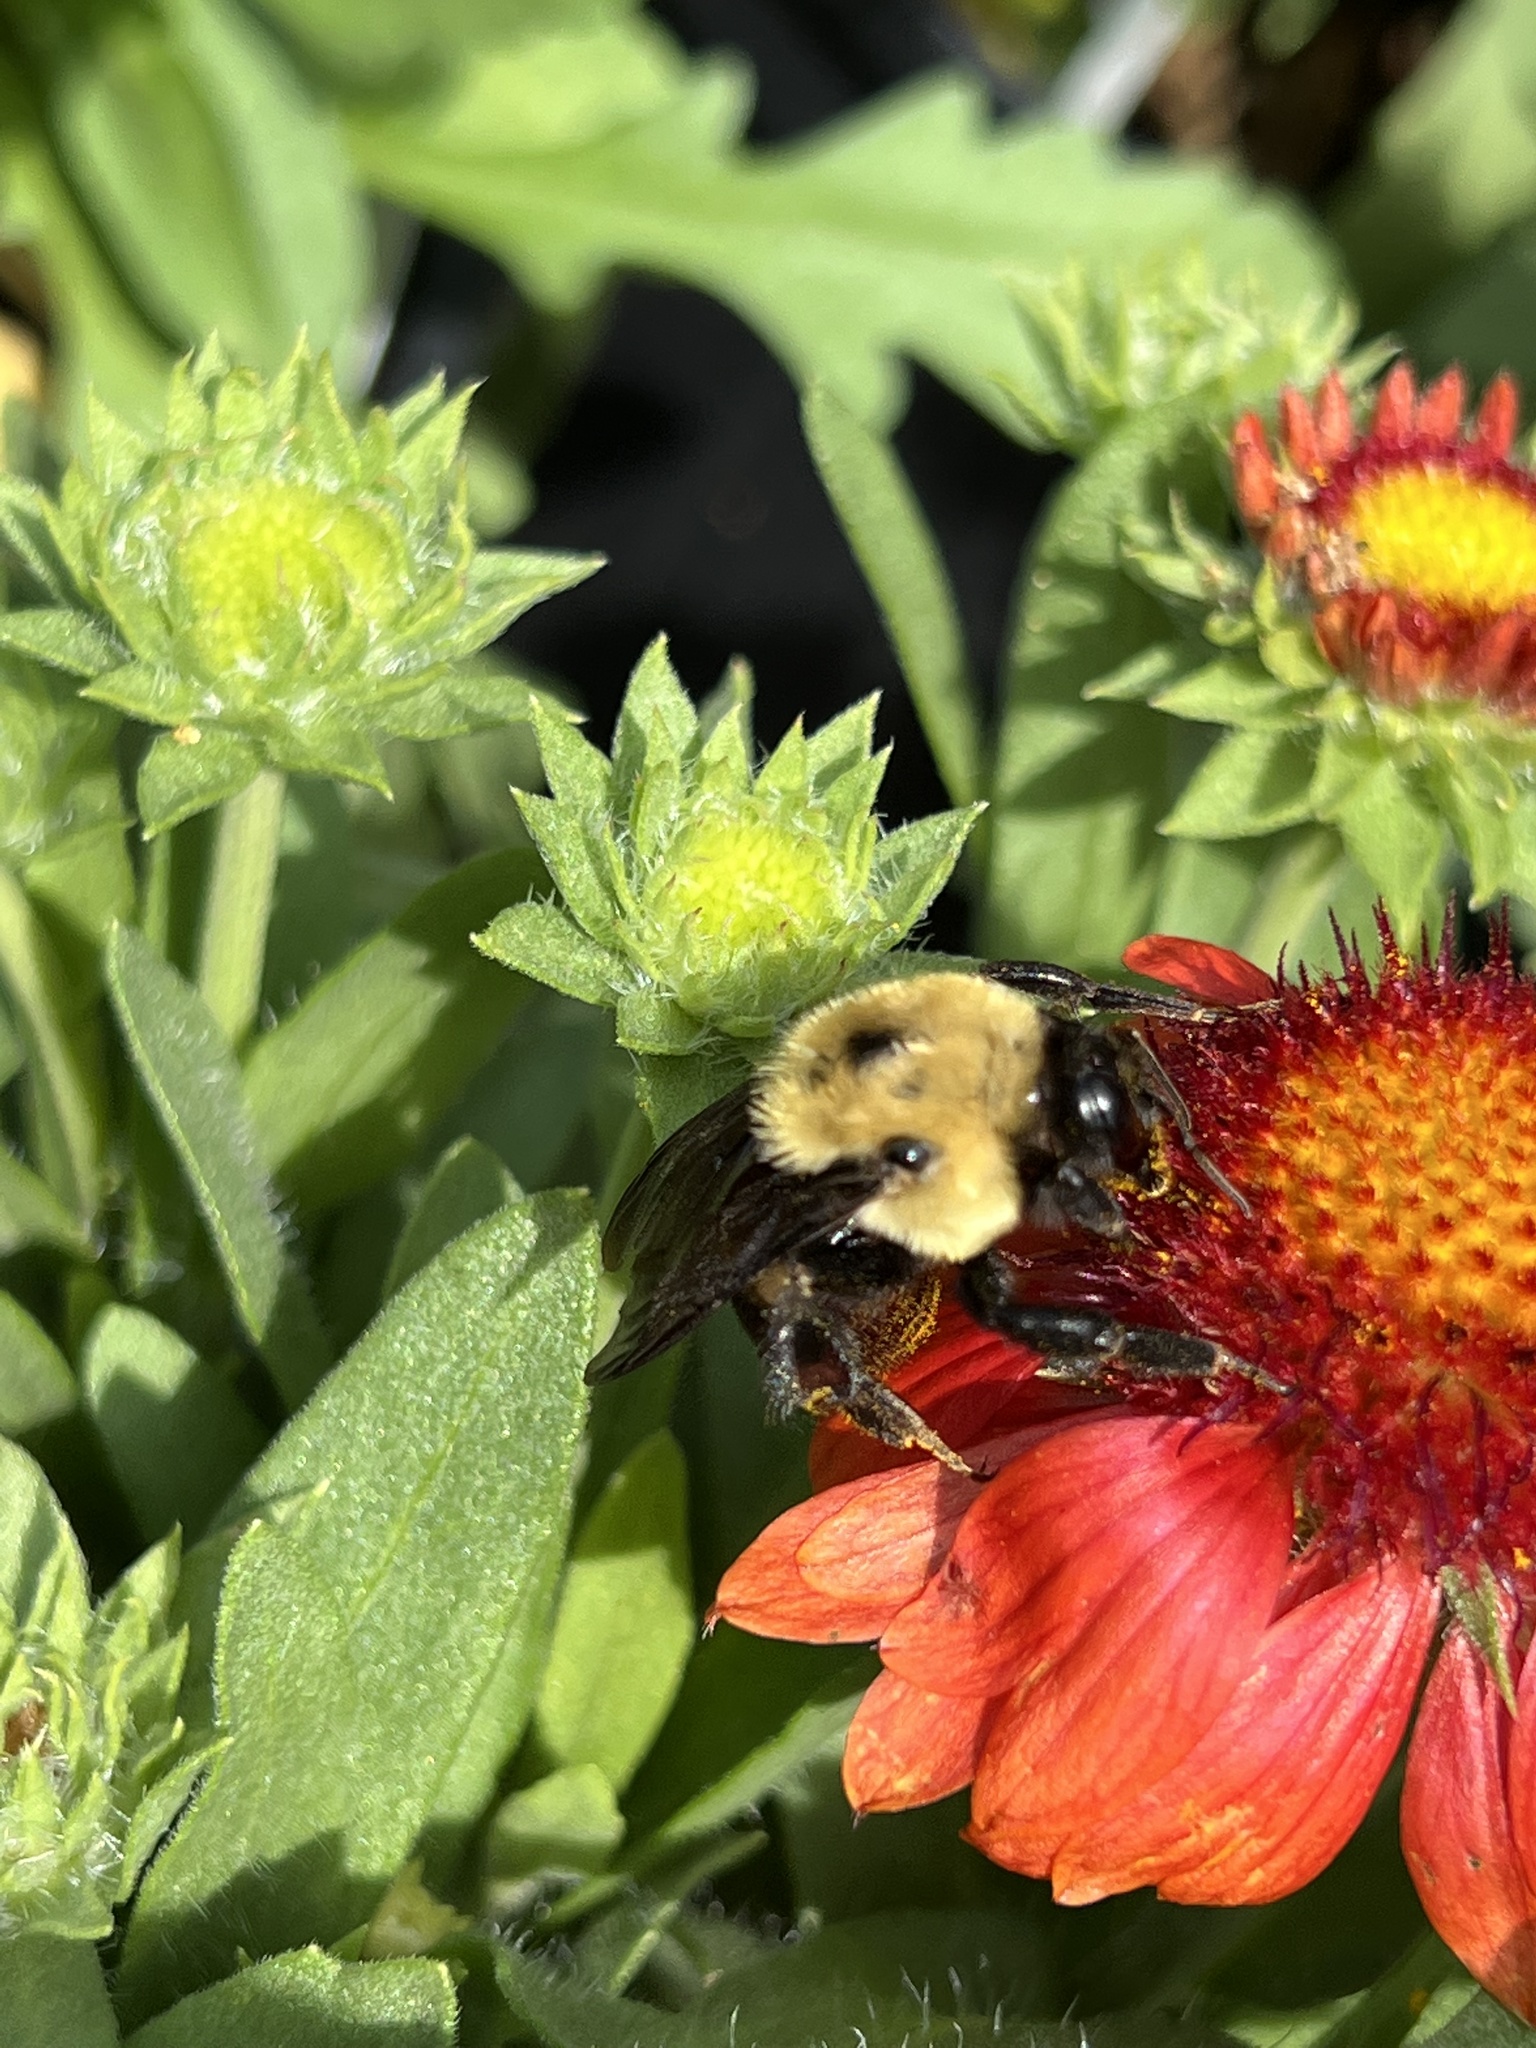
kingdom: Animalia
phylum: Arthropoda
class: Insecta
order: Hymenoptera
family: Apidae
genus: Bombus
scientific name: Bombus griseocollis
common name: Brown-belted bumble bee
